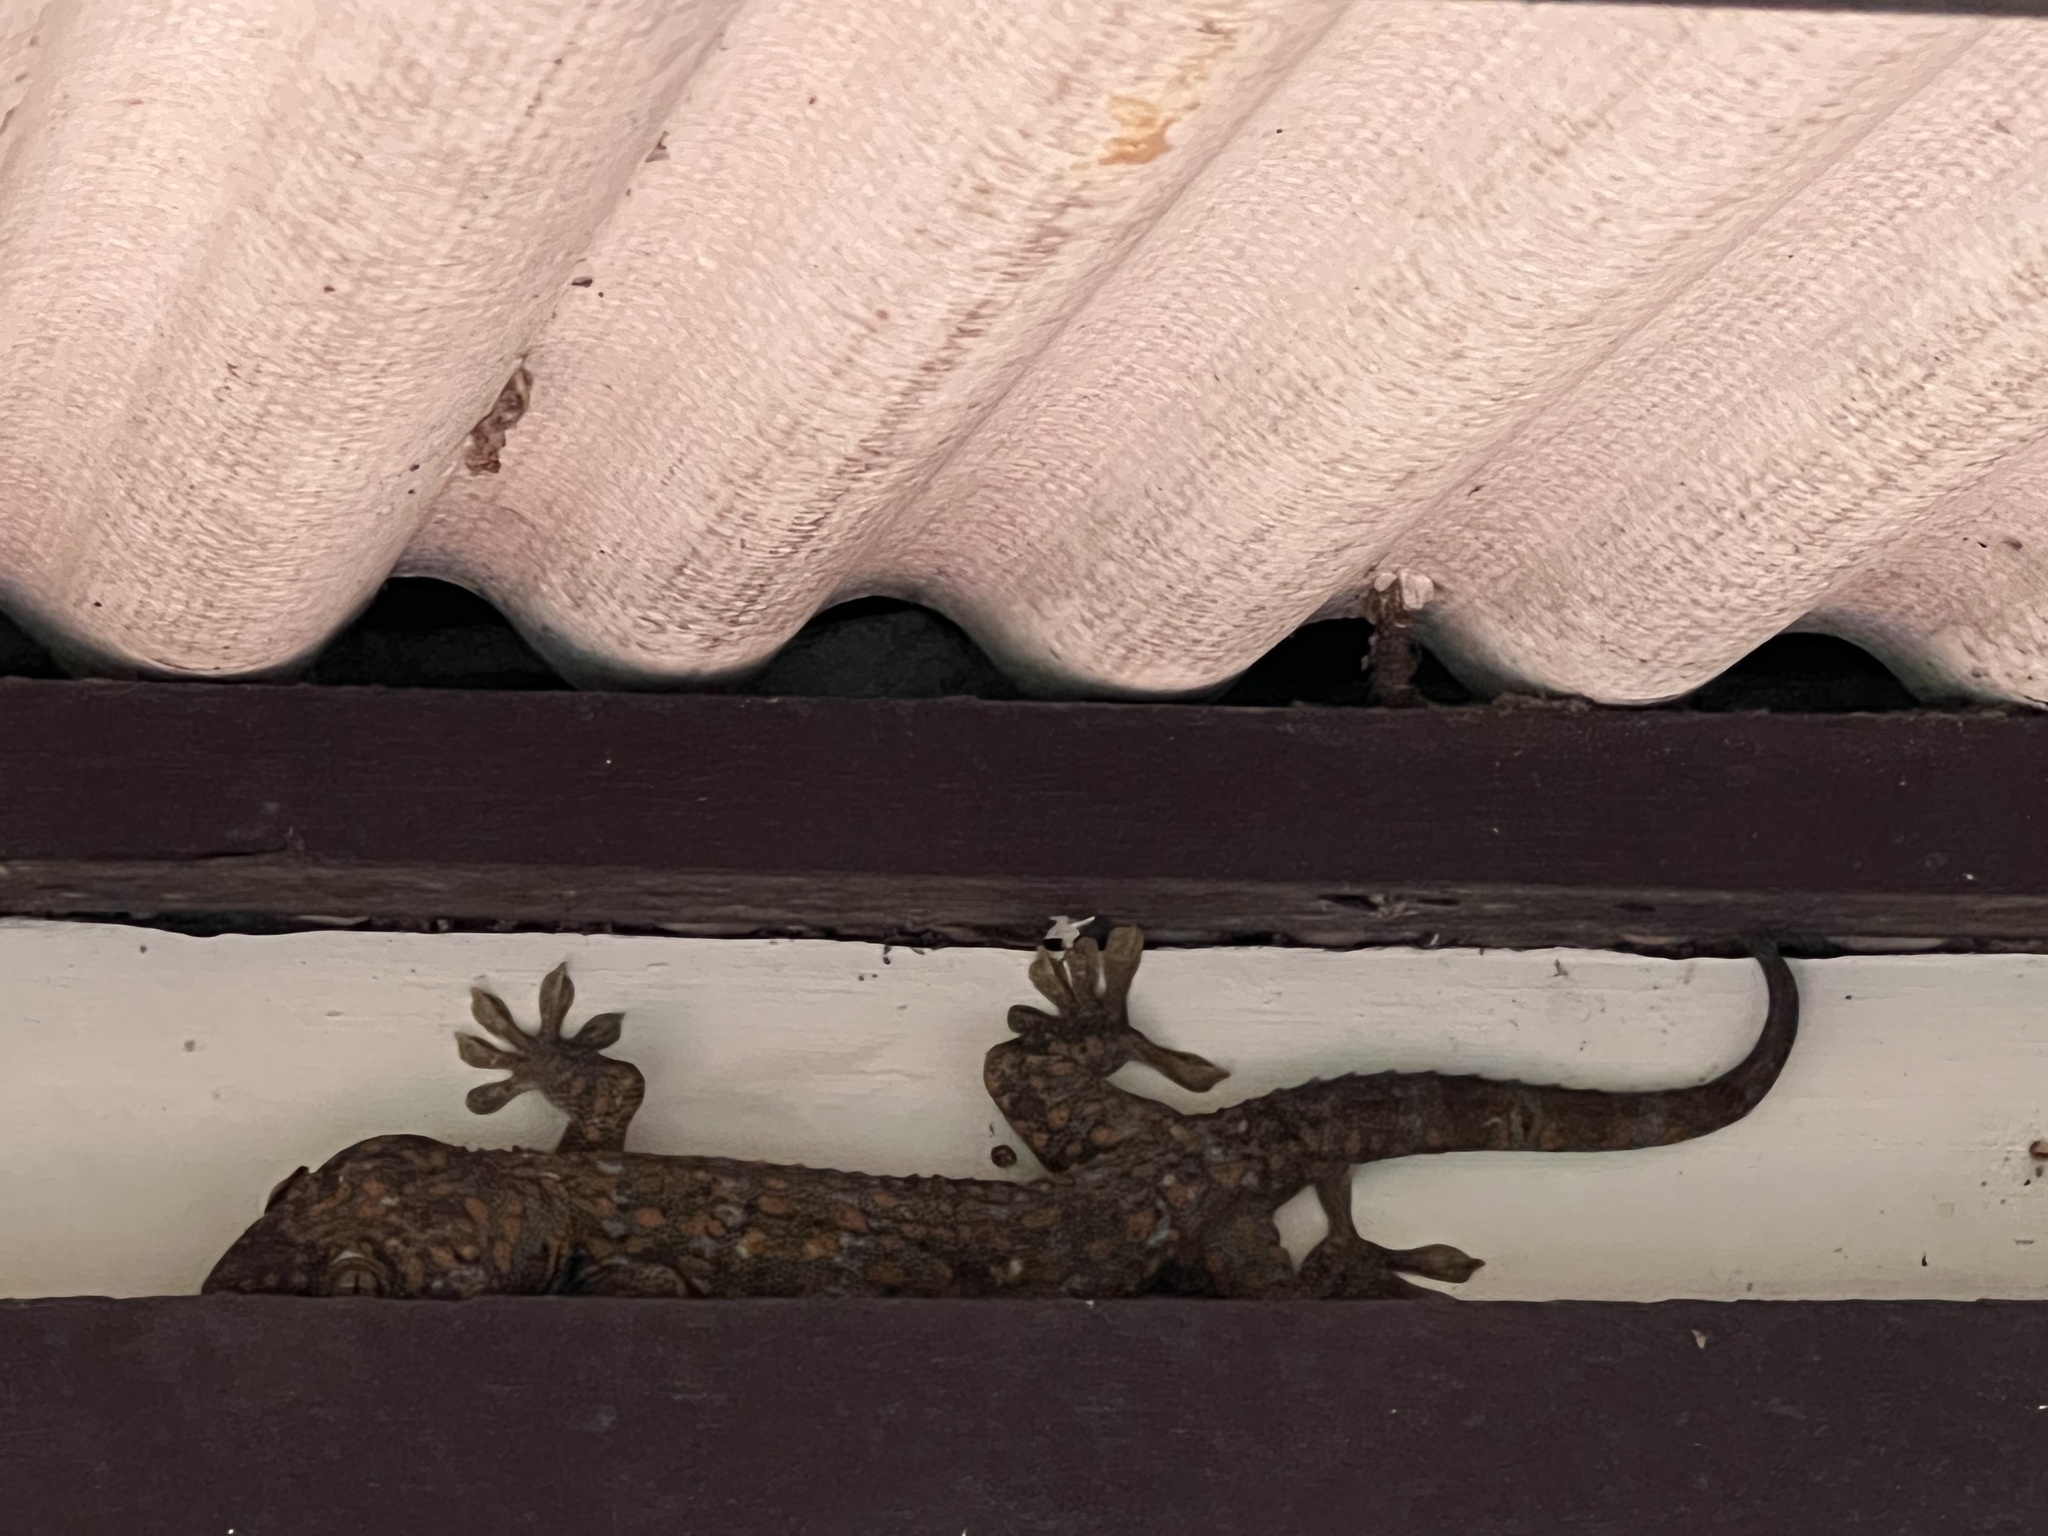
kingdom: Animalia
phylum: Chordata
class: Squamata
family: Gekkonidae
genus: Gekko
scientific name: Gekko gecko
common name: Tokay gecko
